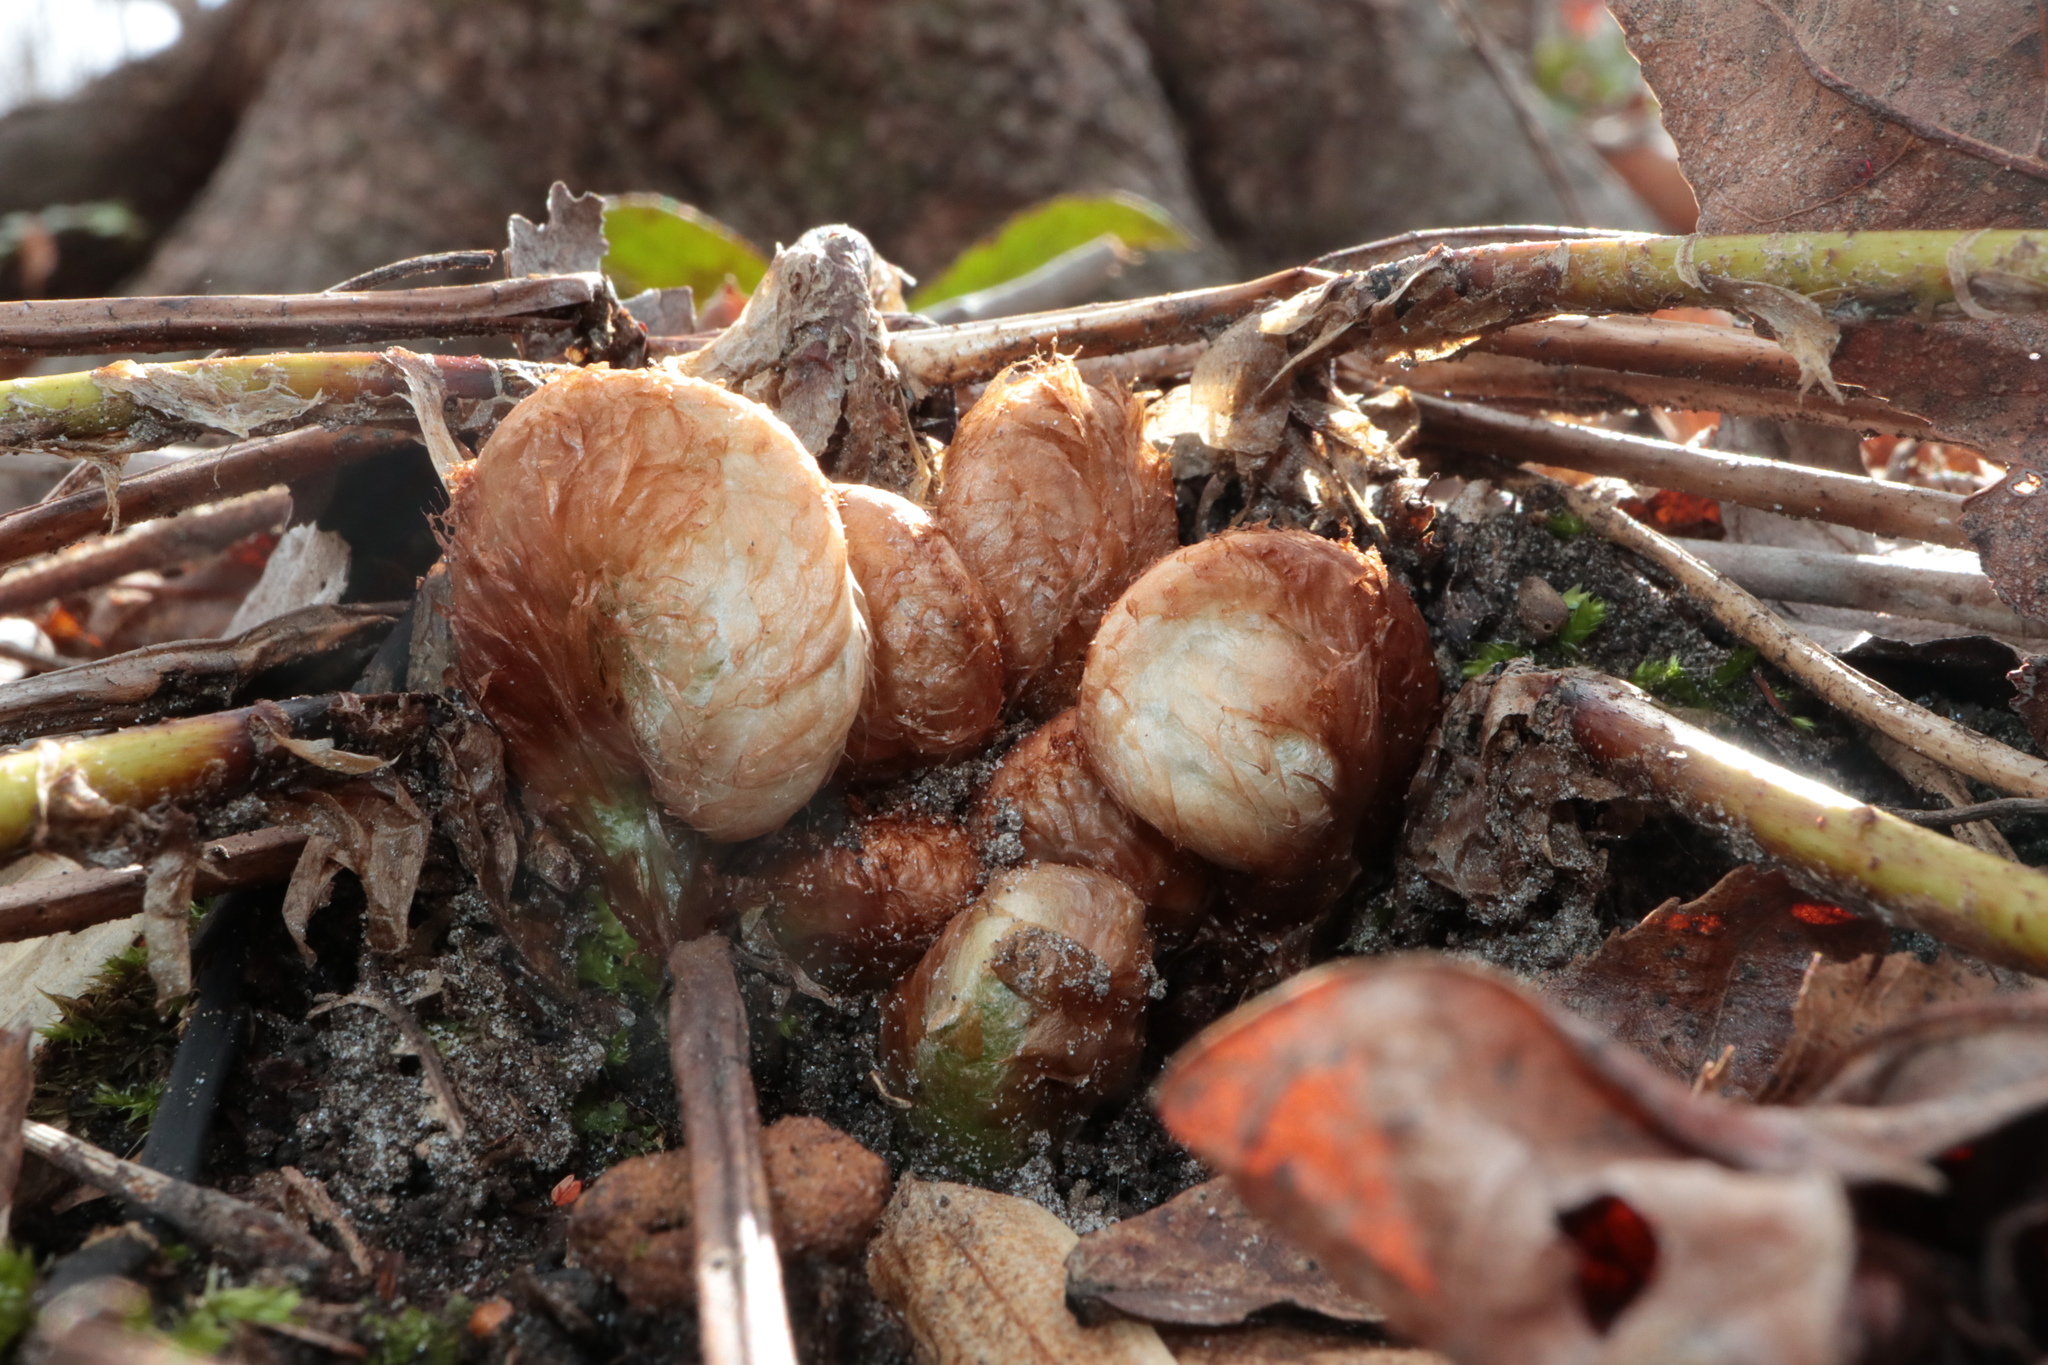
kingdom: Plantae
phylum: Tracheophyta
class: Polypodiopsida
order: Polypodiales
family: Dryopteridaceae
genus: Polystichum
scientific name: Polystichum acrostichoides
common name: Christmas fern
